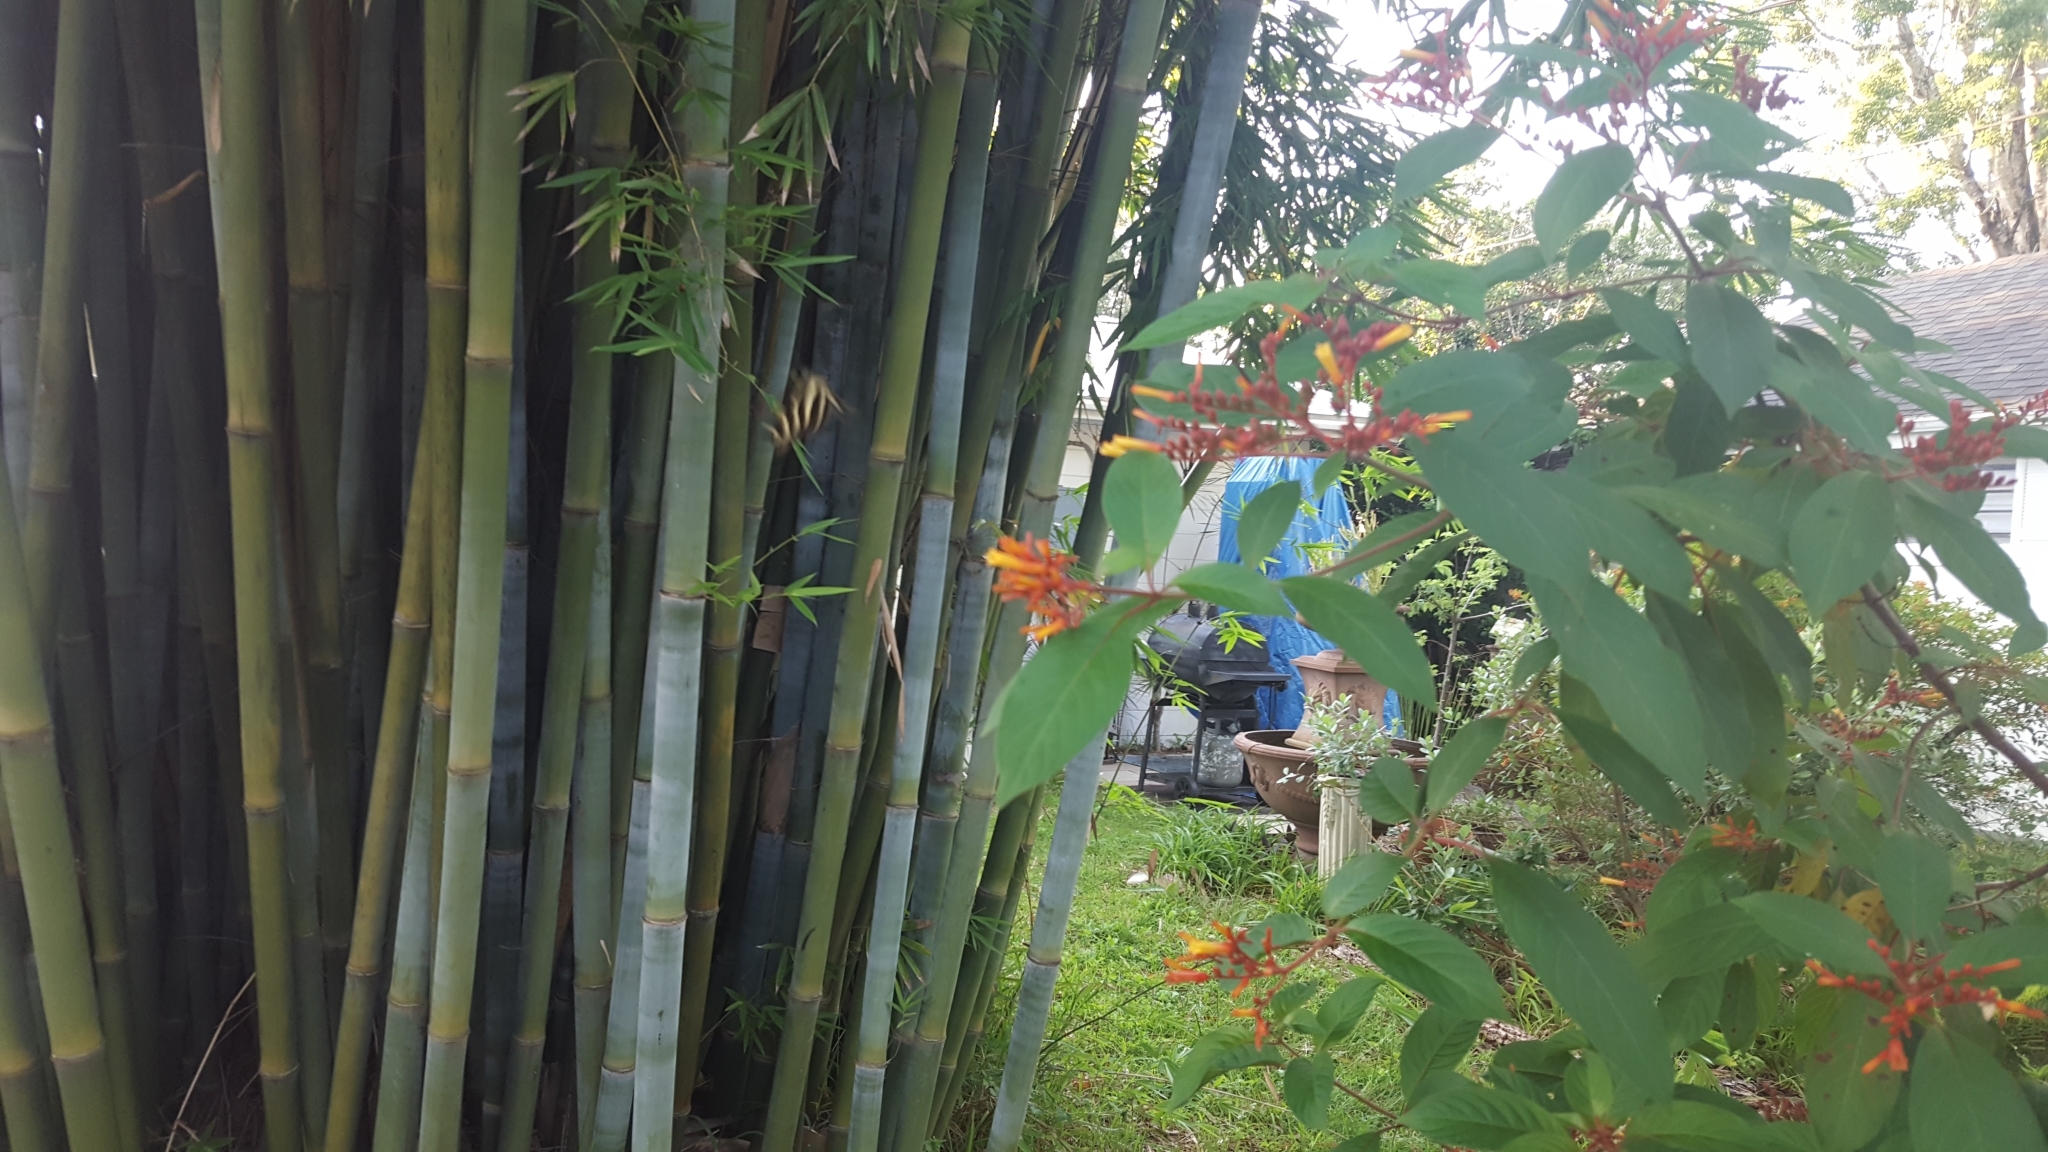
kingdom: Animalia
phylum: Arthropoda
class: Insecta
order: Lepidoptera
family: Nymphalidae
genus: Heliconius
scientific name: Heliconius charithonia
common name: Zebra long wing
